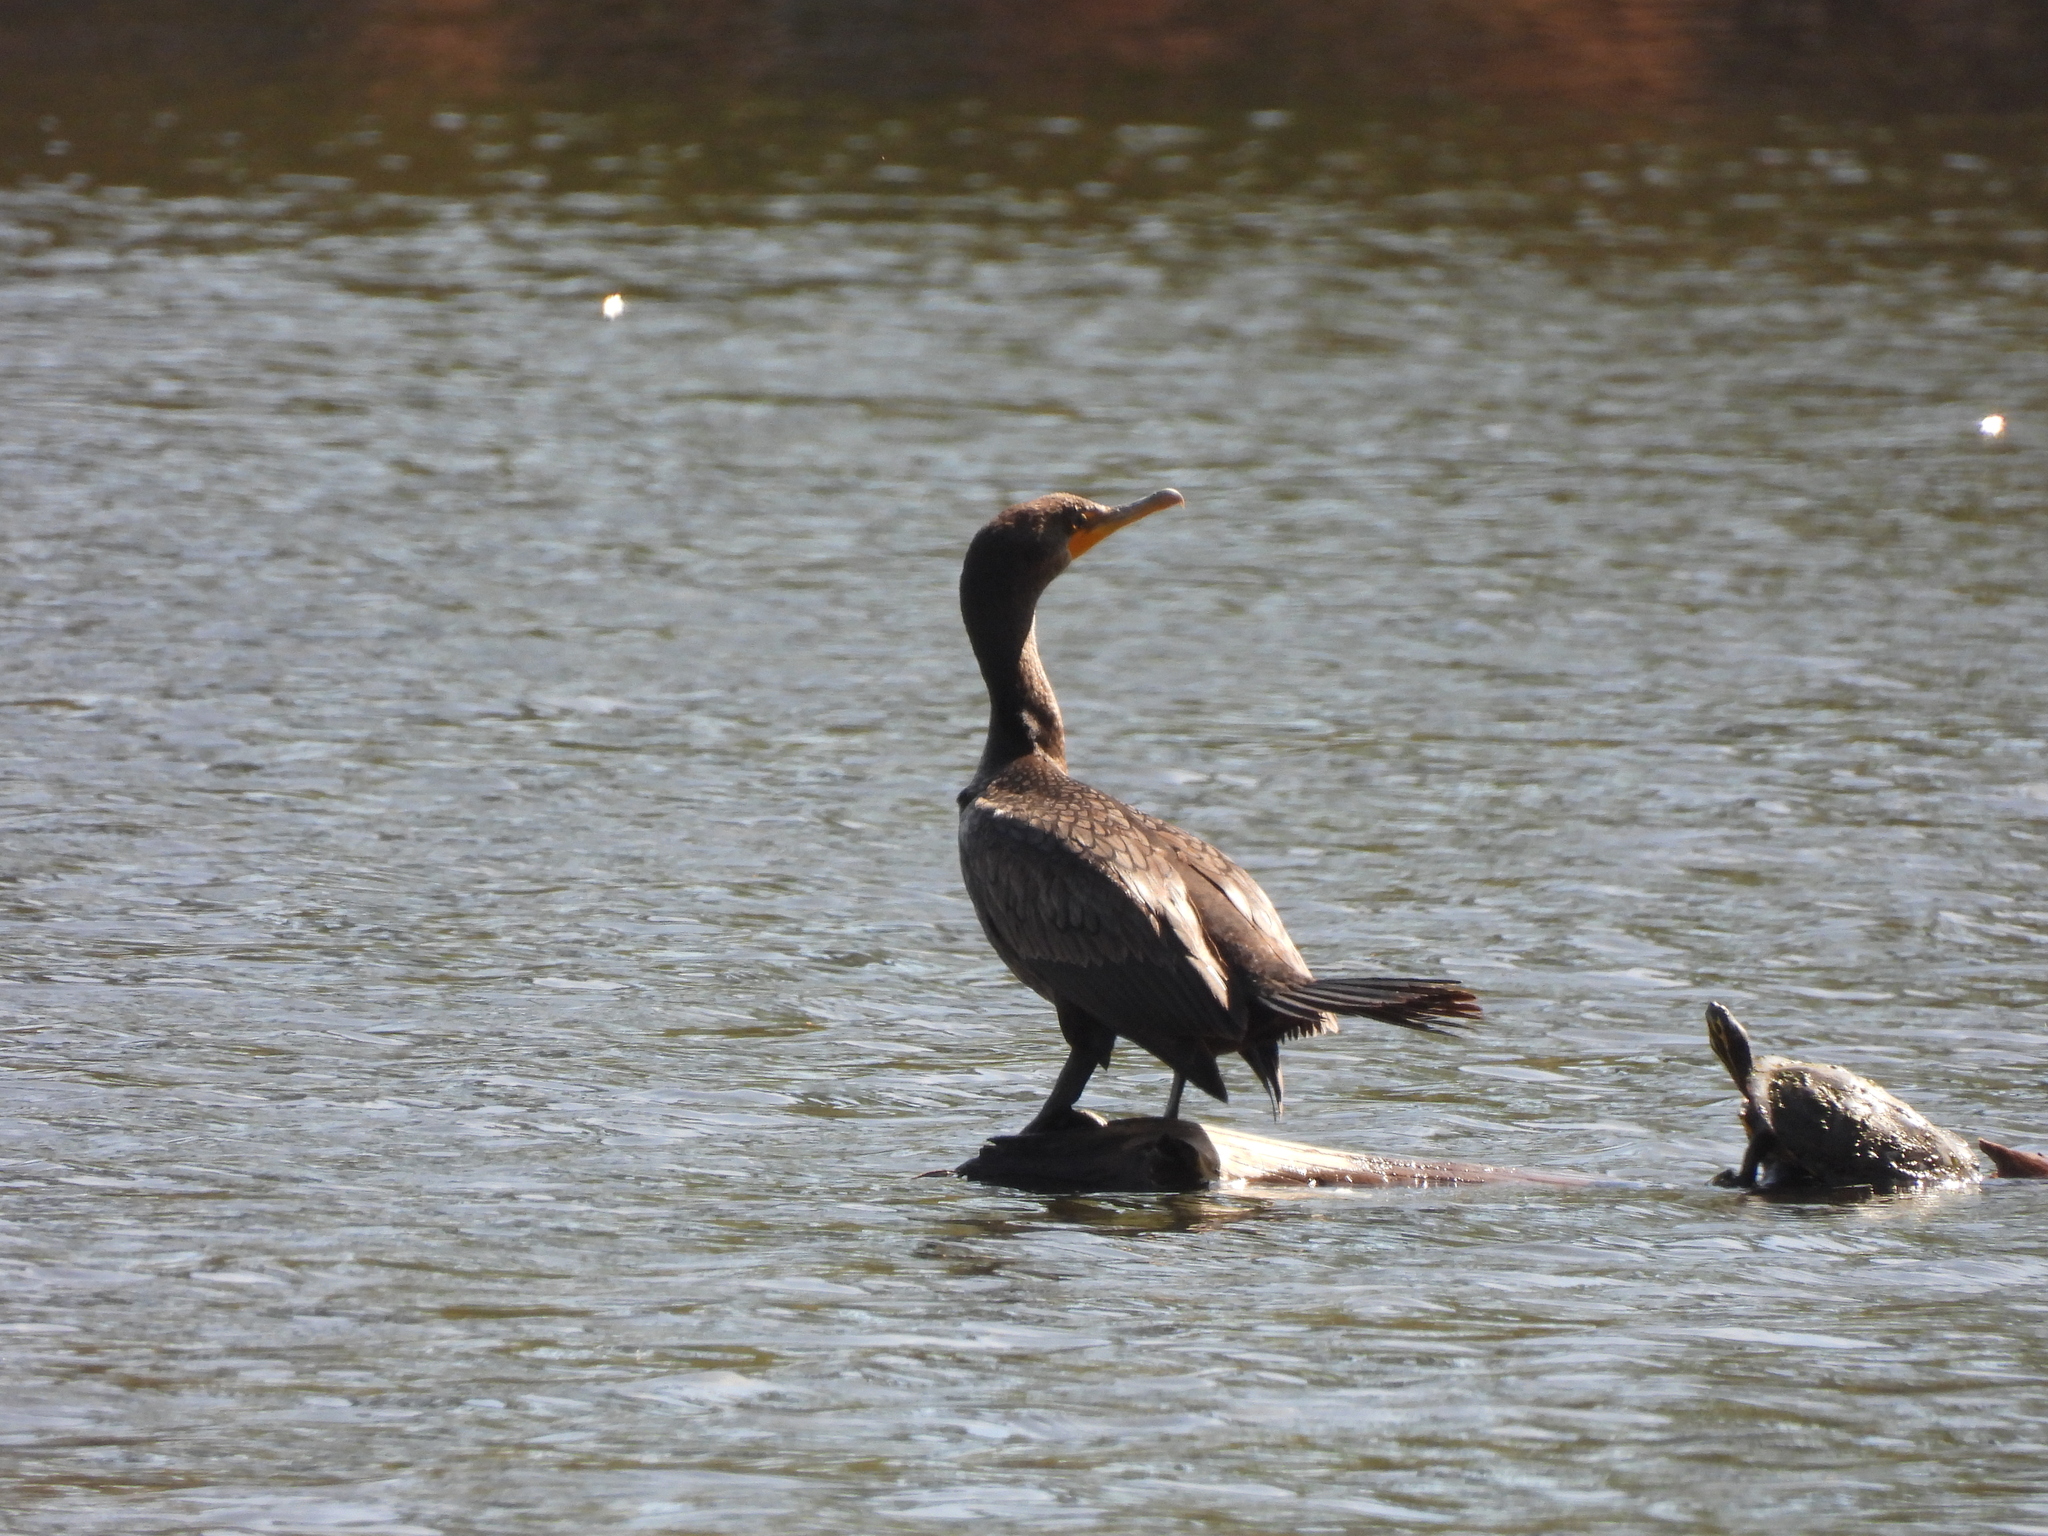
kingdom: Animalia
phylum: Chordata
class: Aves
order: Suliformes
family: Phalacrocoracidae
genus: Phalacrocorax
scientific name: Phalacrocorax auritus
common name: Double-crested cormorant
